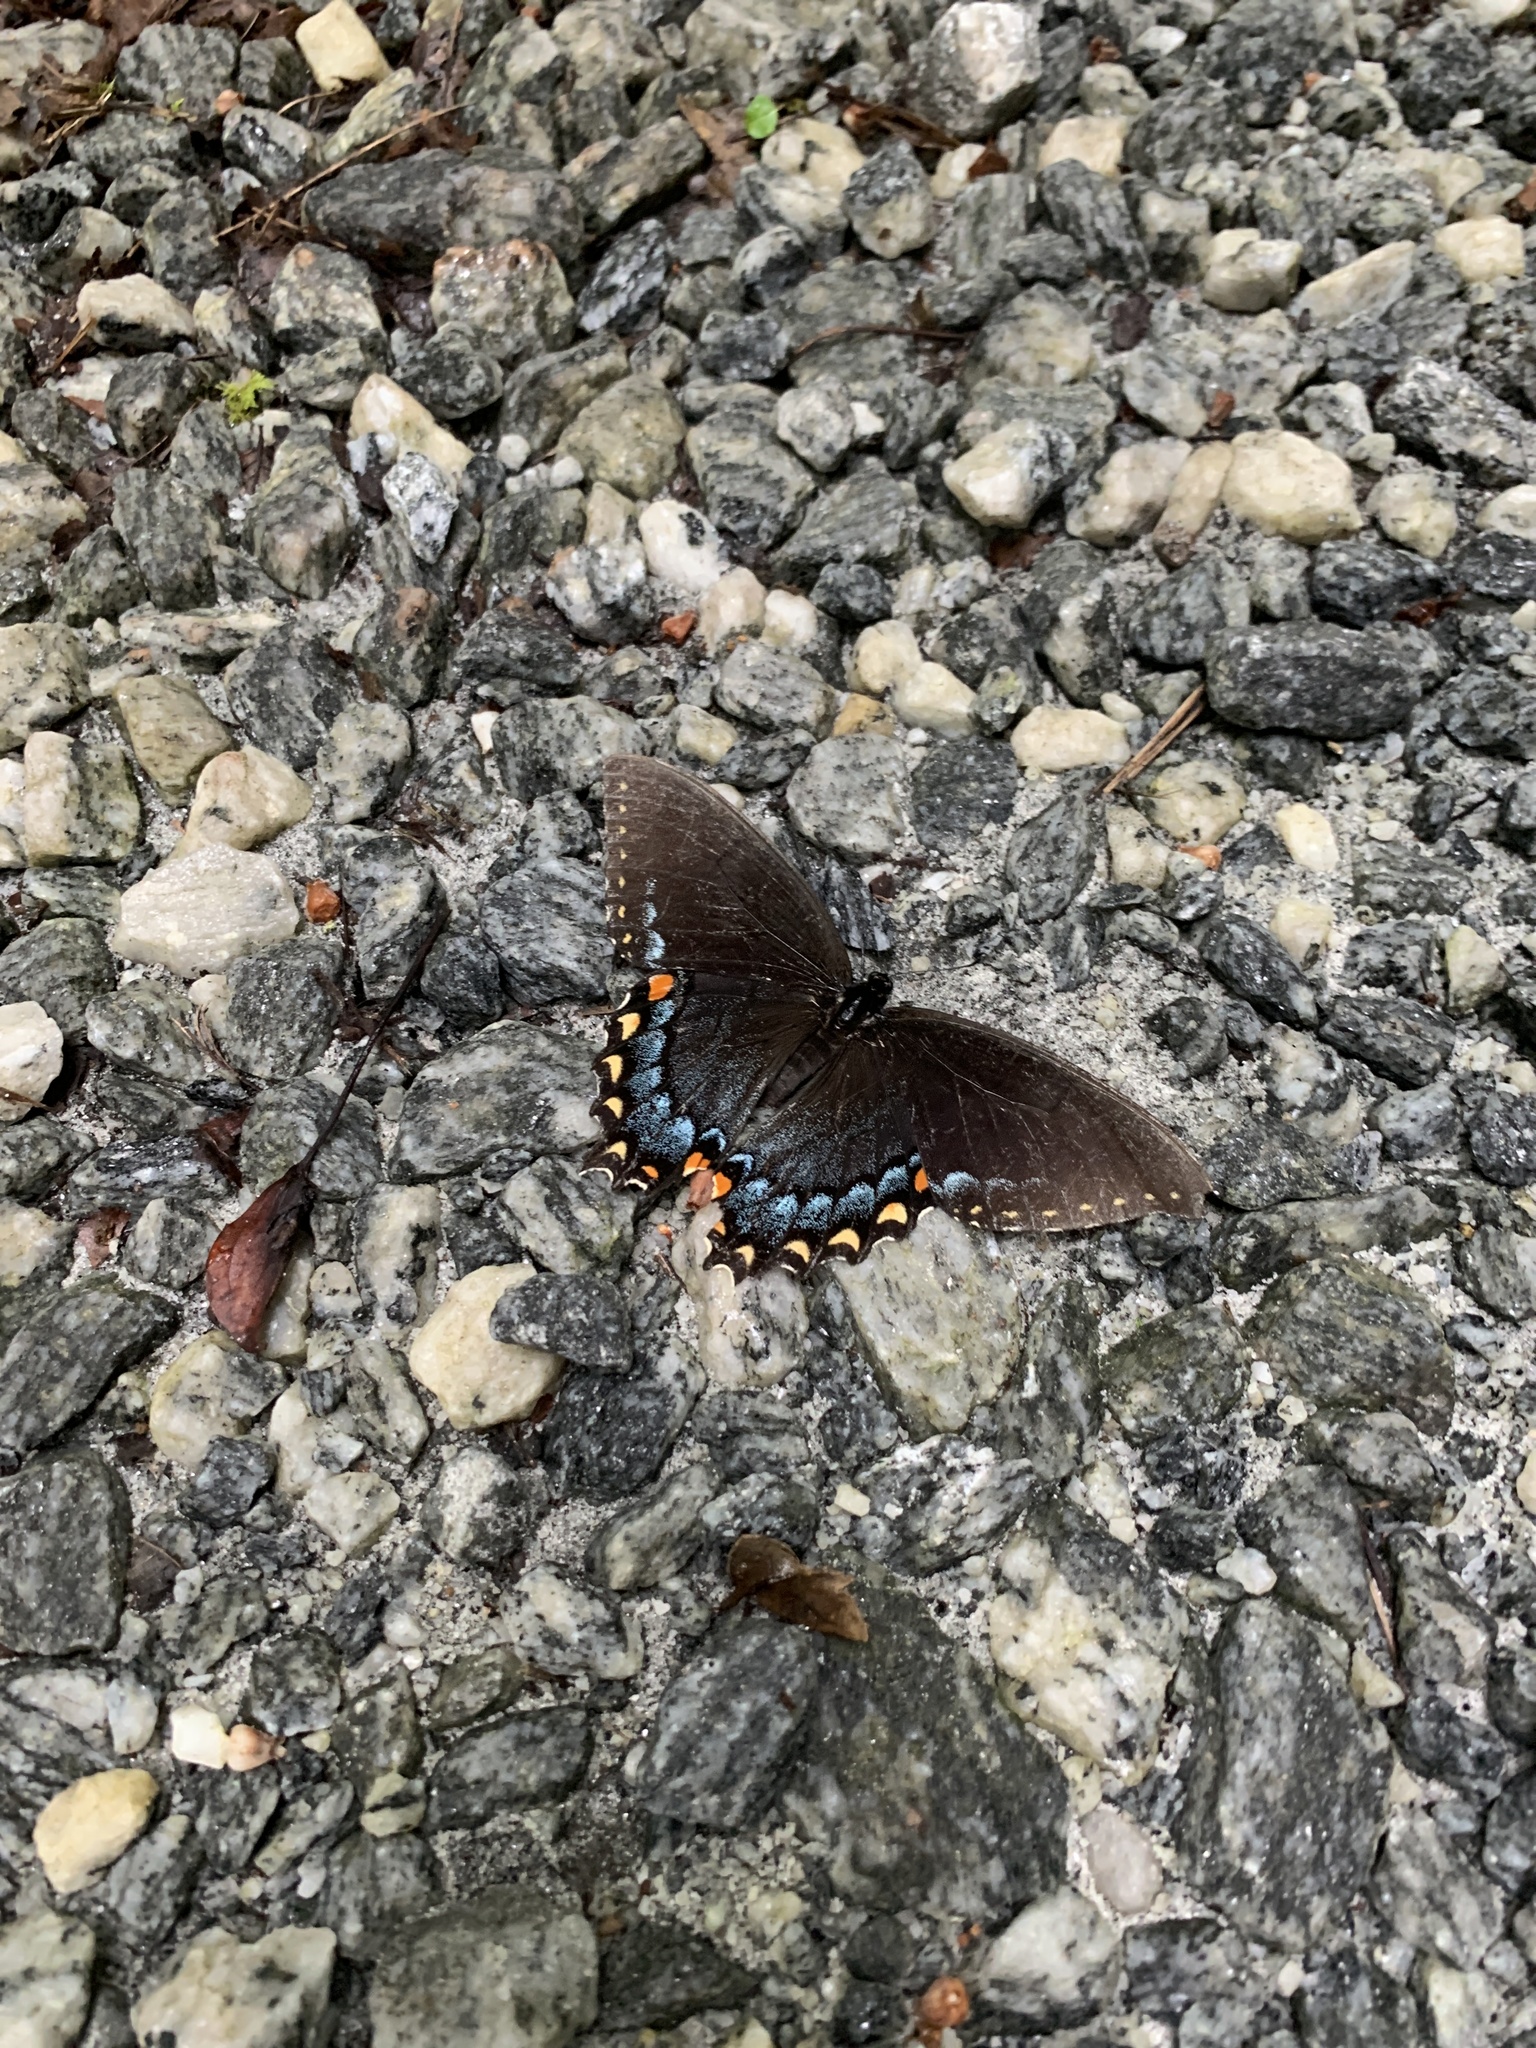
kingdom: Animalia
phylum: Arthropoda
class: Insecta
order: Lepidoptera
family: Papilionidae
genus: Papilio
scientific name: Papilio glaucus
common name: Tiger swallowtail
